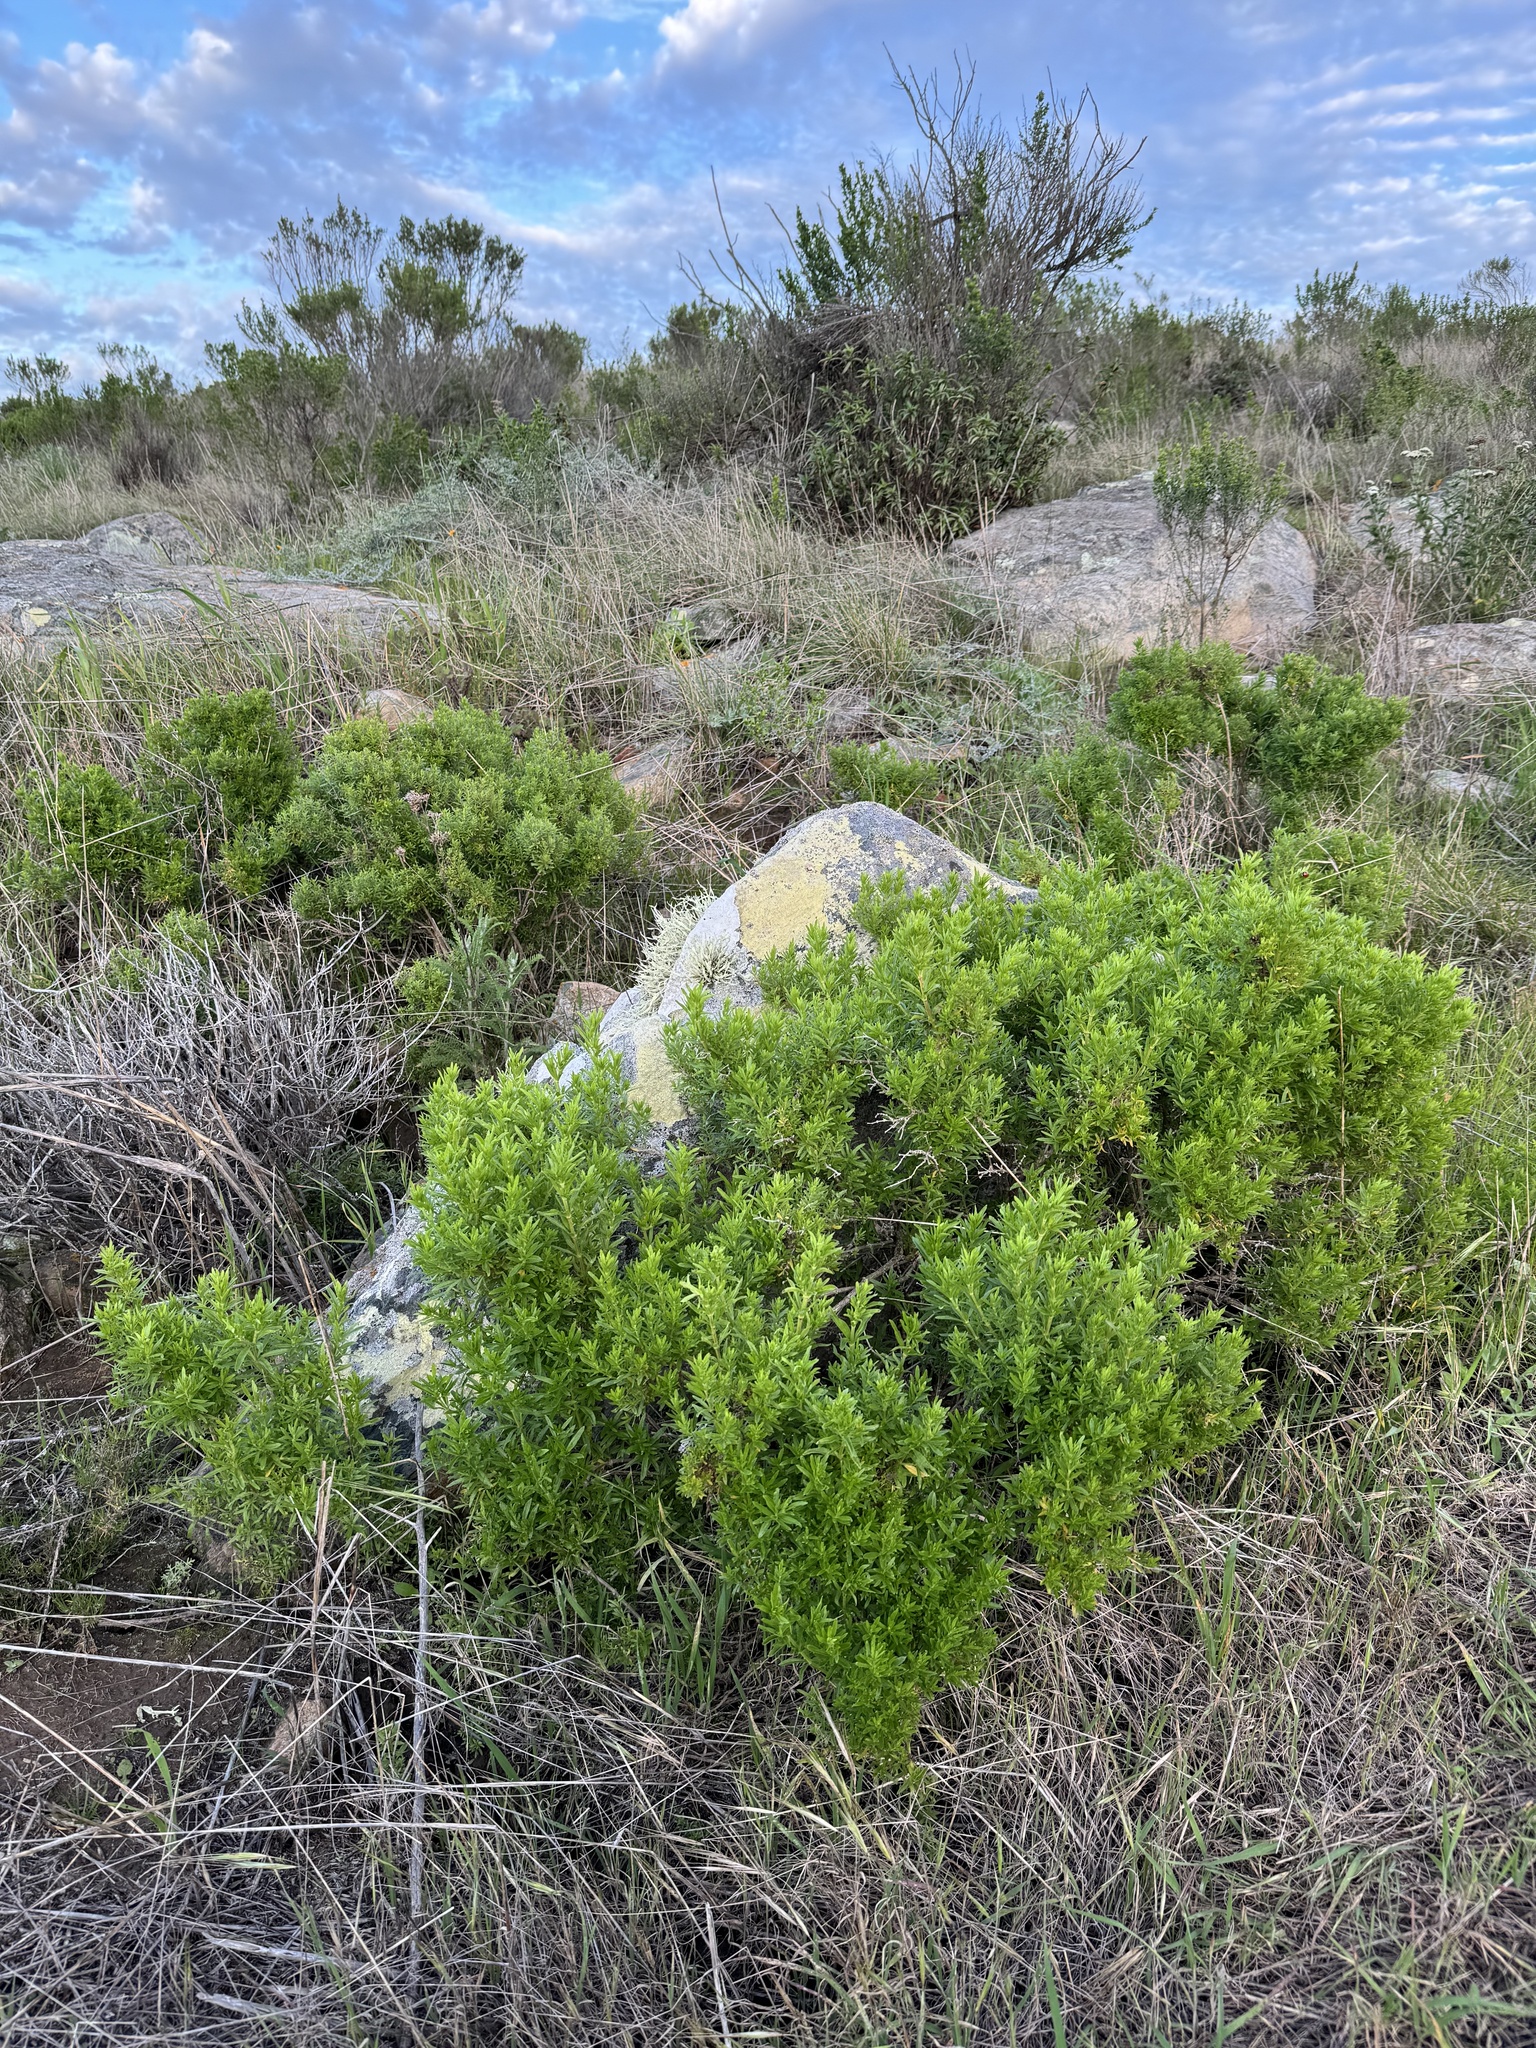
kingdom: Plantae
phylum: Tracheophyta
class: Magnoliopsida
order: Gentianales
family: Rubiaceae
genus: Galium
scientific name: Galium catalinense
